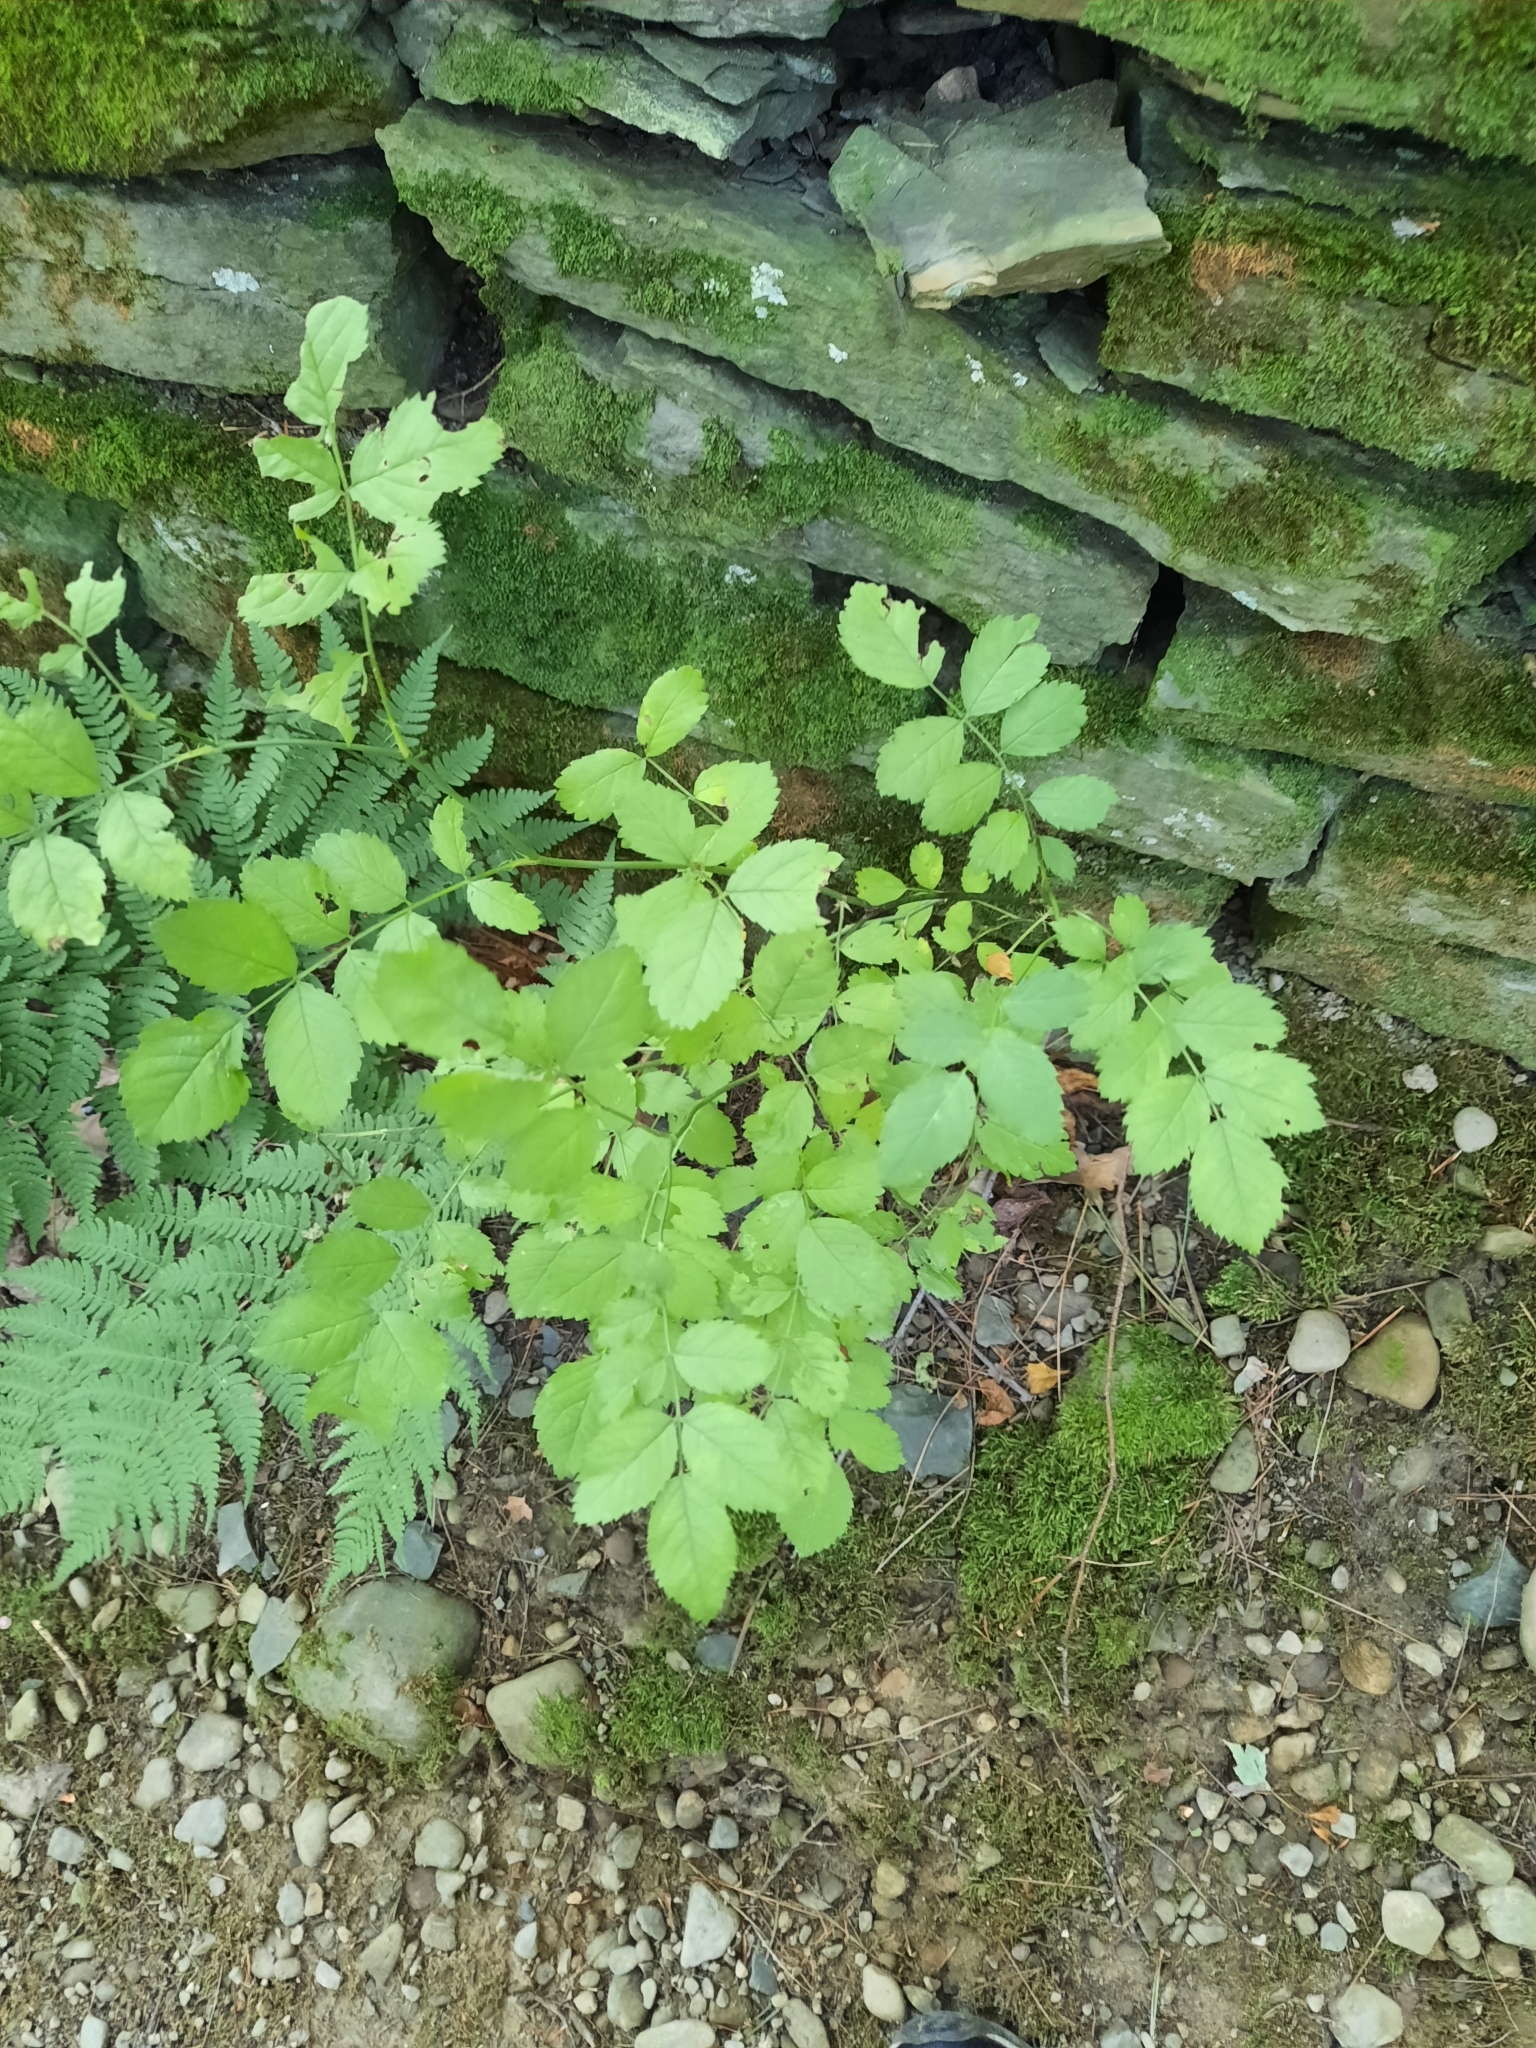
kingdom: Plantae
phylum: Tracheophyta
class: Magnoliopsida
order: Rosales
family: Rosaceae
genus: Rosa
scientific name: Rosa multiflora
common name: Multiflora rose
